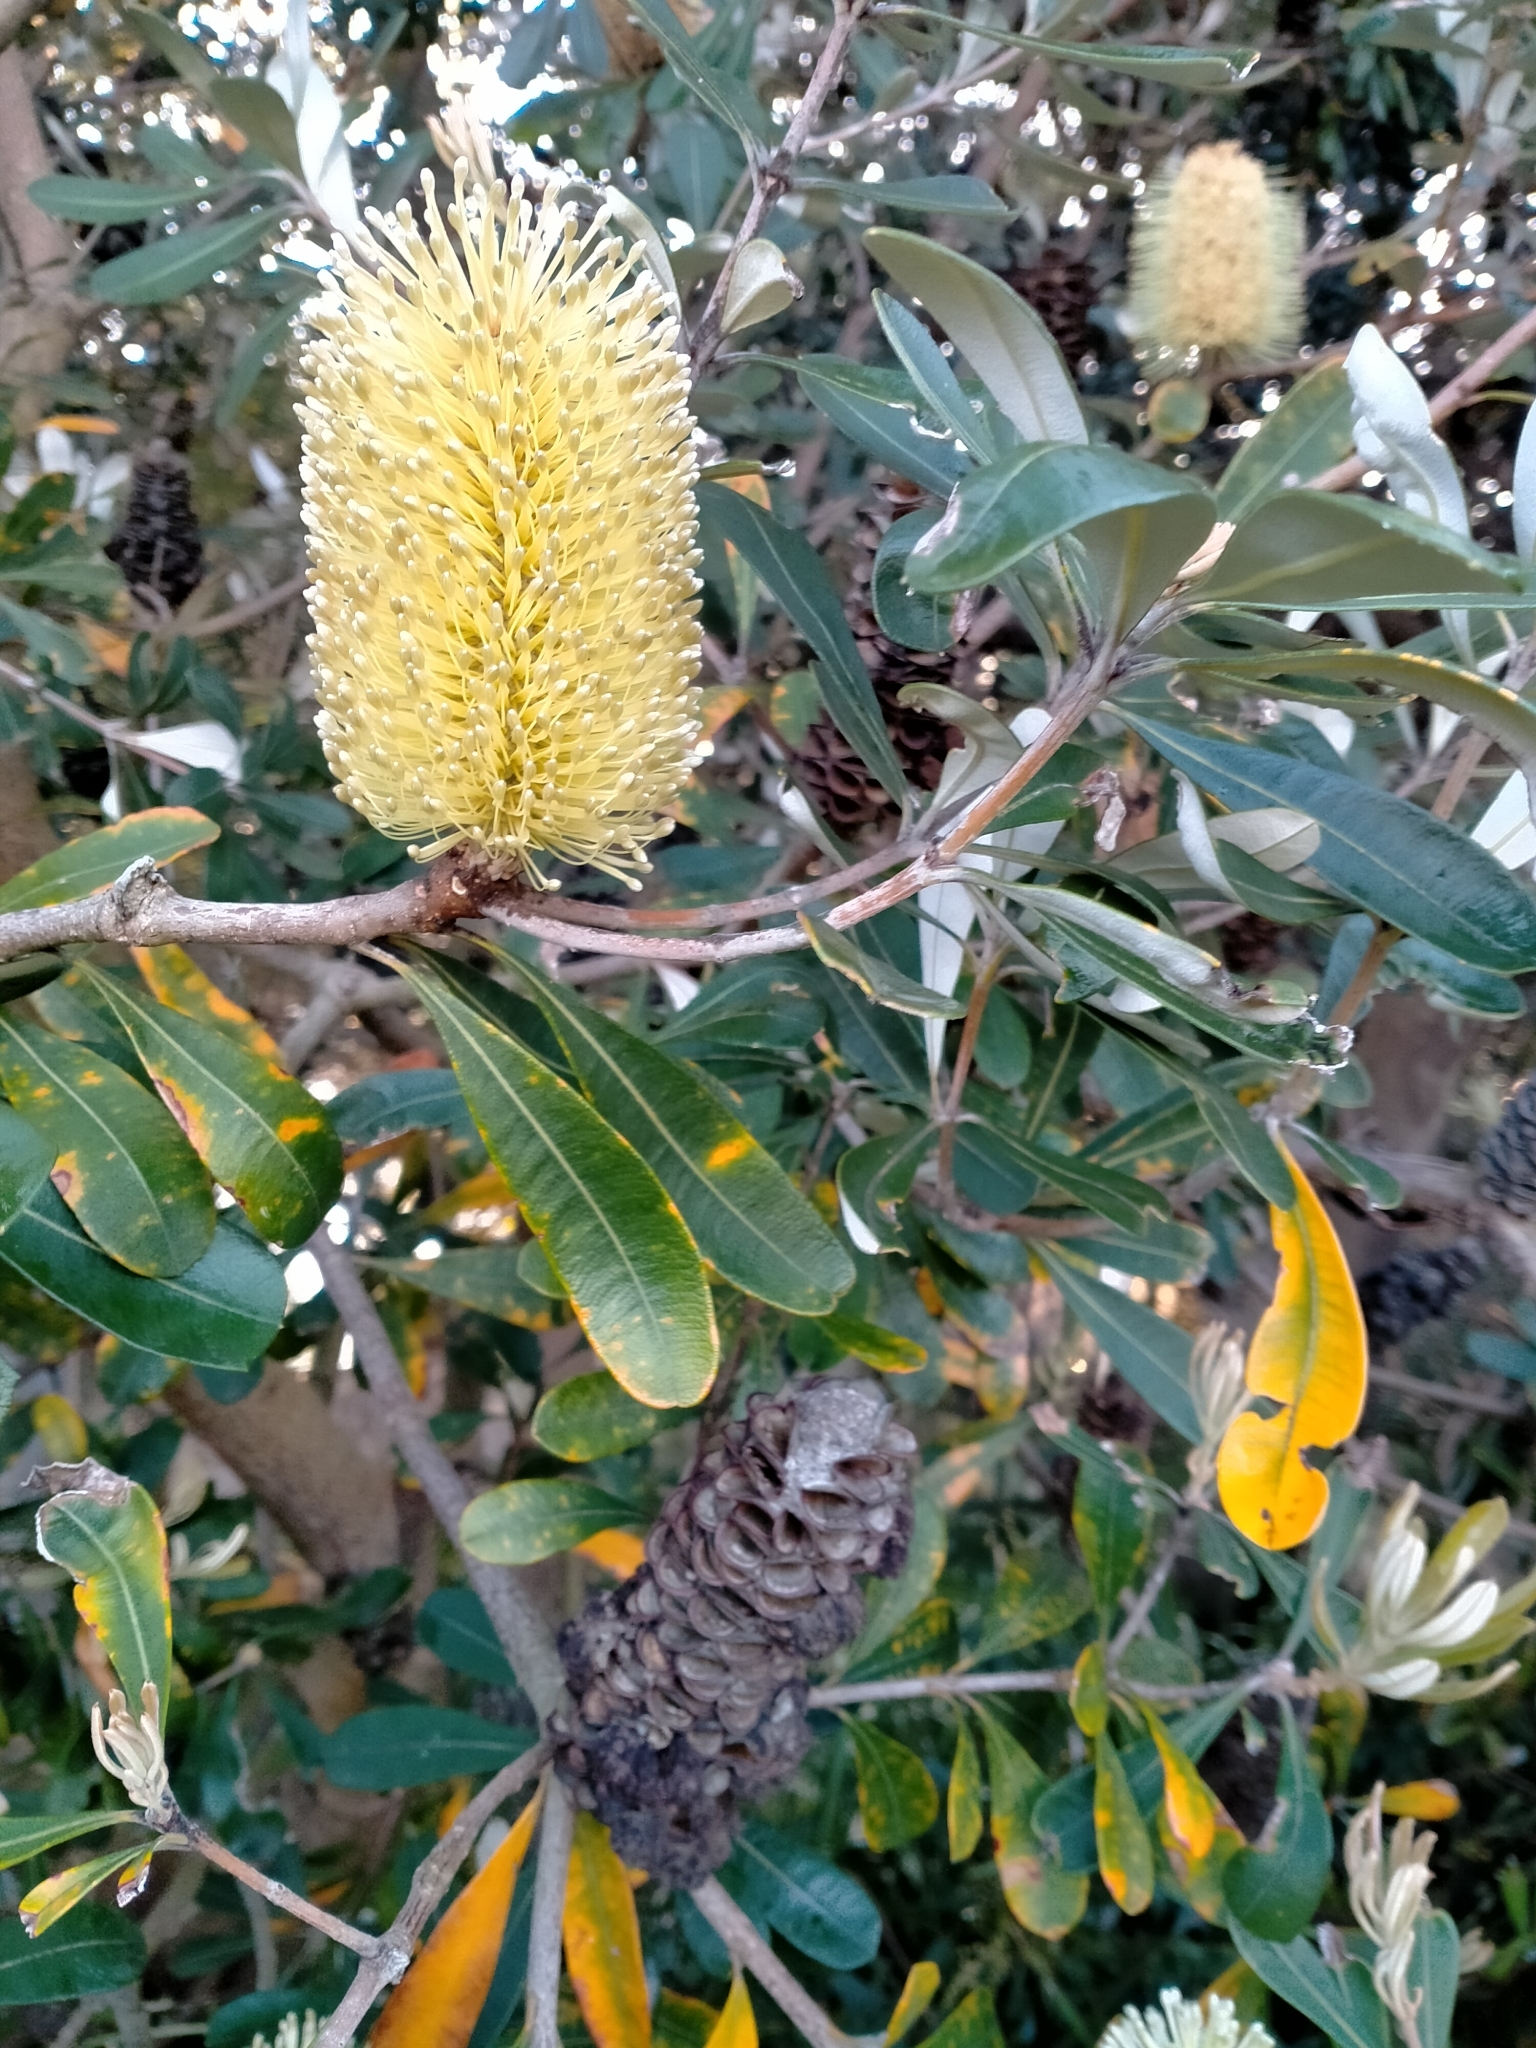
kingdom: Plantae
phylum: Tracheophyta
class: Magnoliopsida
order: Proteales
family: Proteaceae
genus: Banksia
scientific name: Banksia integrifolia
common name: White-honeysuckle
